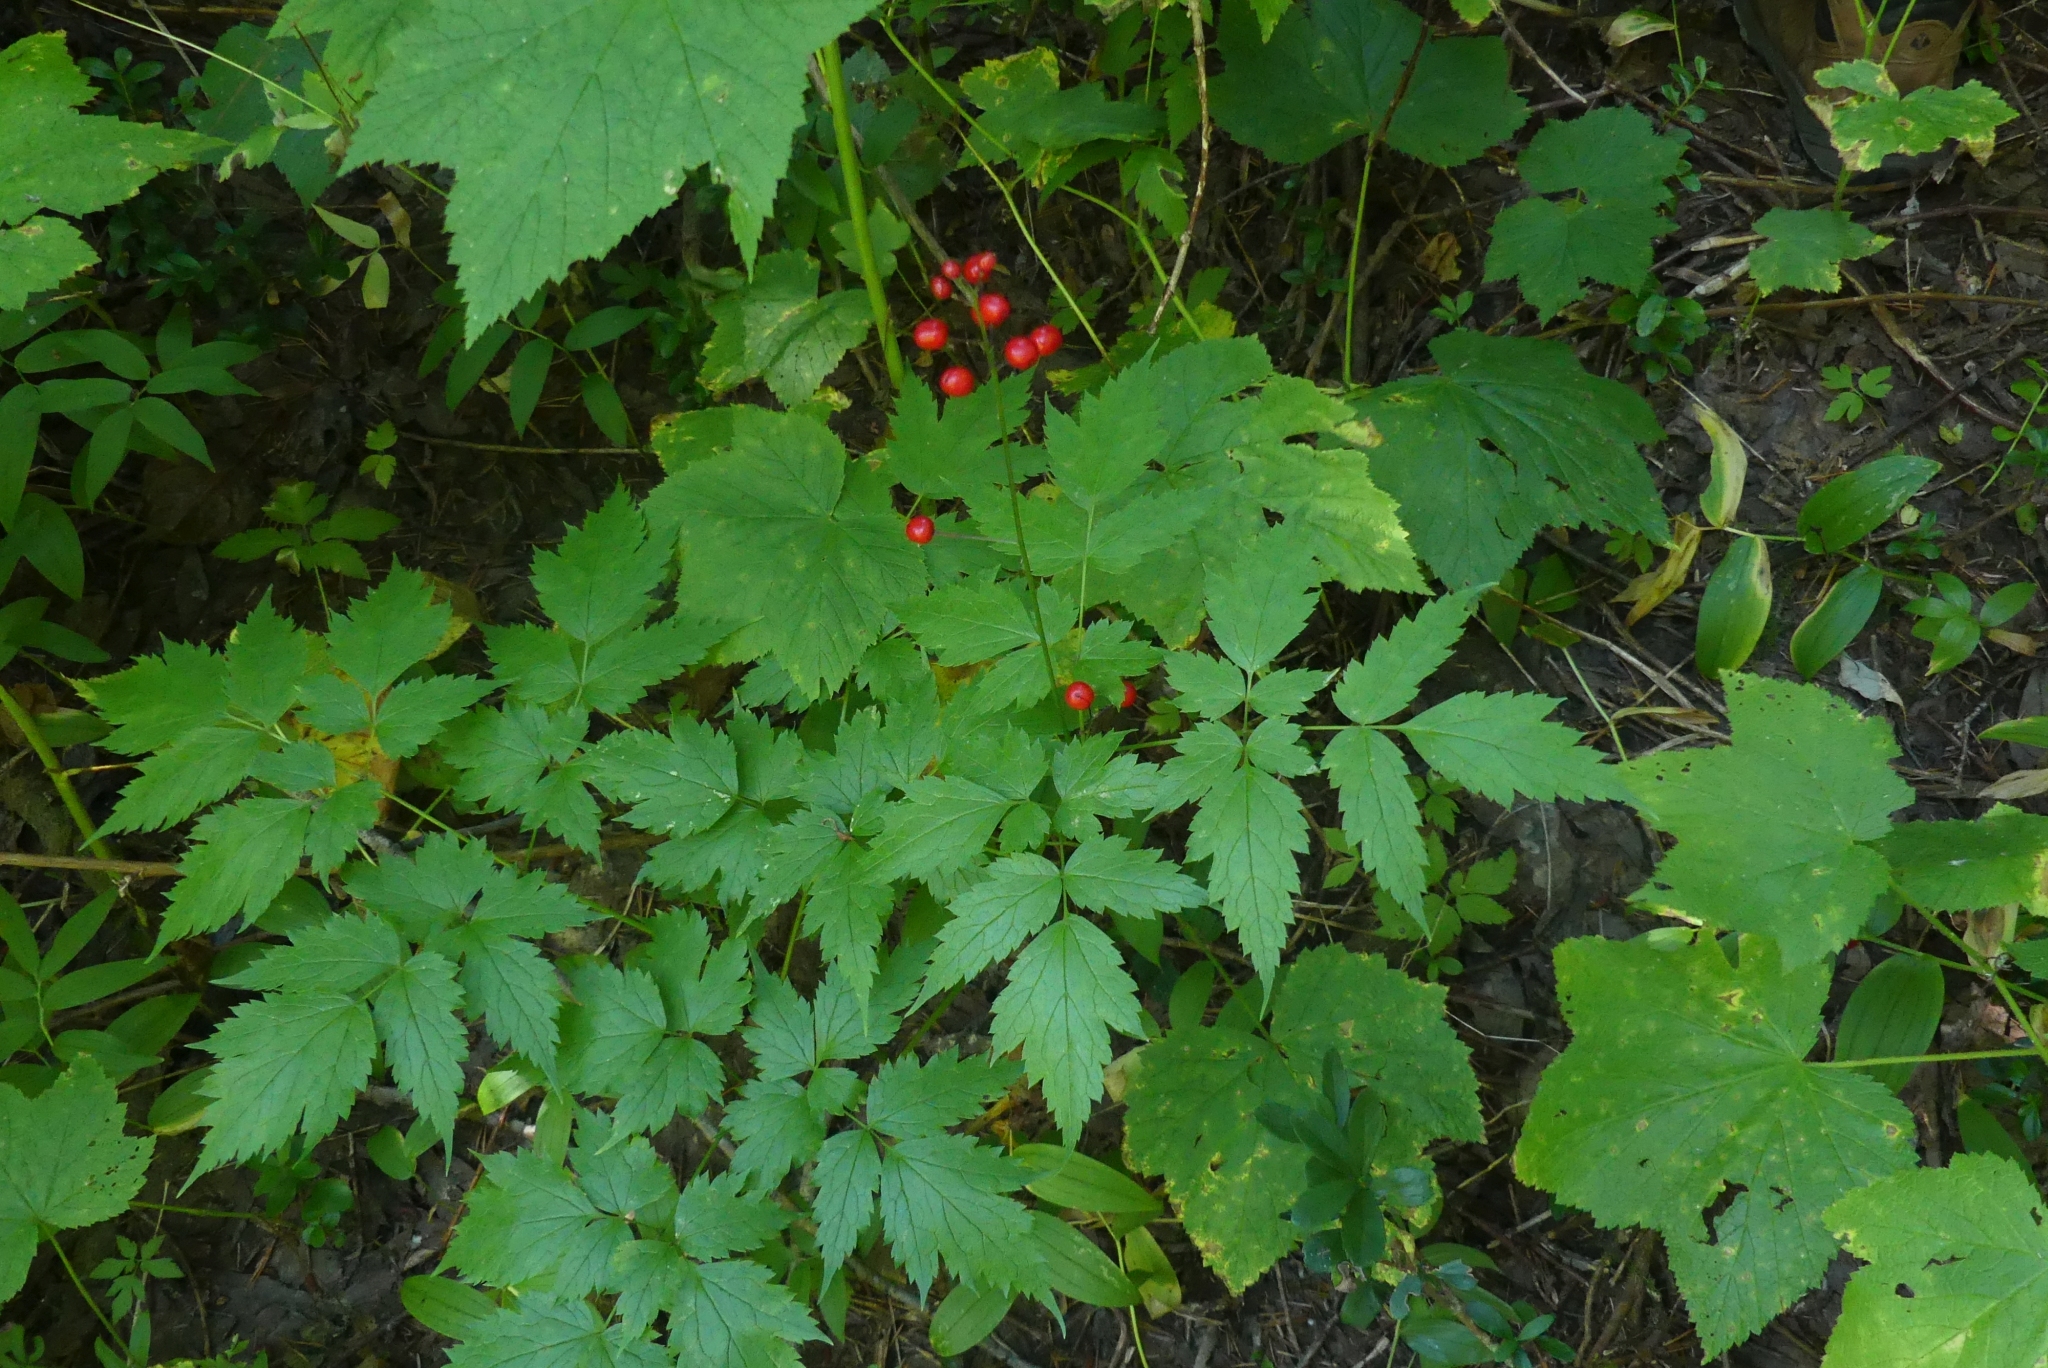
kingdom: Plantae
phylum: Tracheophyta
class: Magnoliopsida
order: Ranunculales
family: Ranunculaceae
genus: Actaea
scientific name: Actaea rubra
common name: Red baneberry
